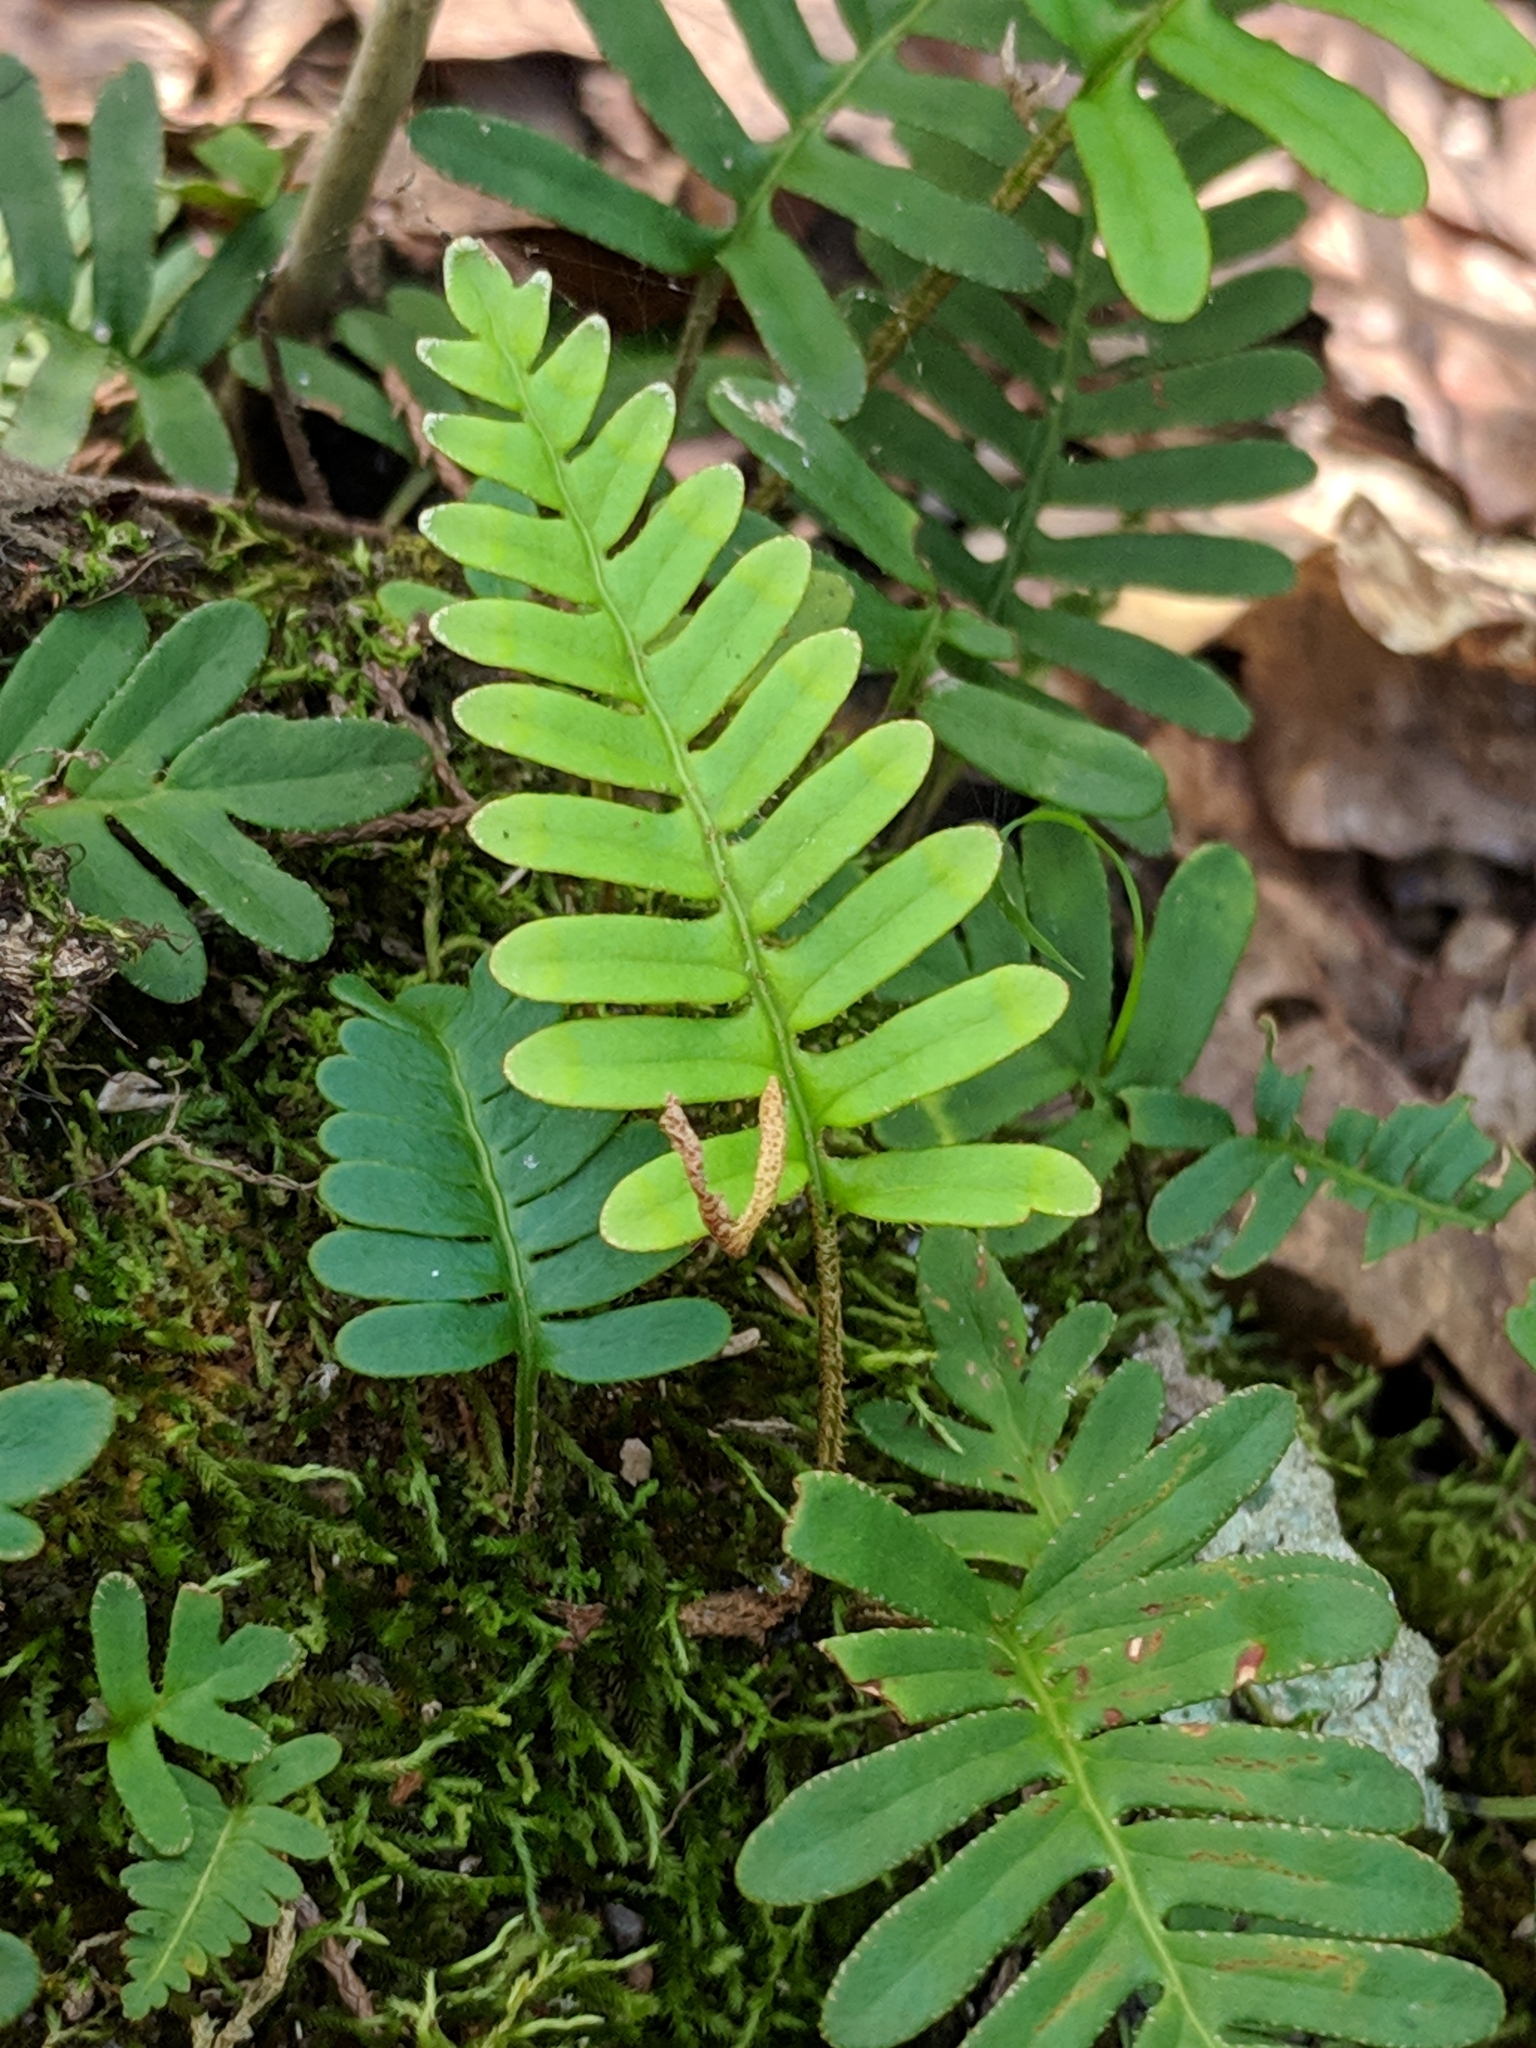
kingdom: Plantae
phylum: Tracheophyta
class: Polypodiopsida
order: Polypodiales
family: Polypodiaceae
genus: Pleopeltis
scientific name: Pleopeltis michauxiana
